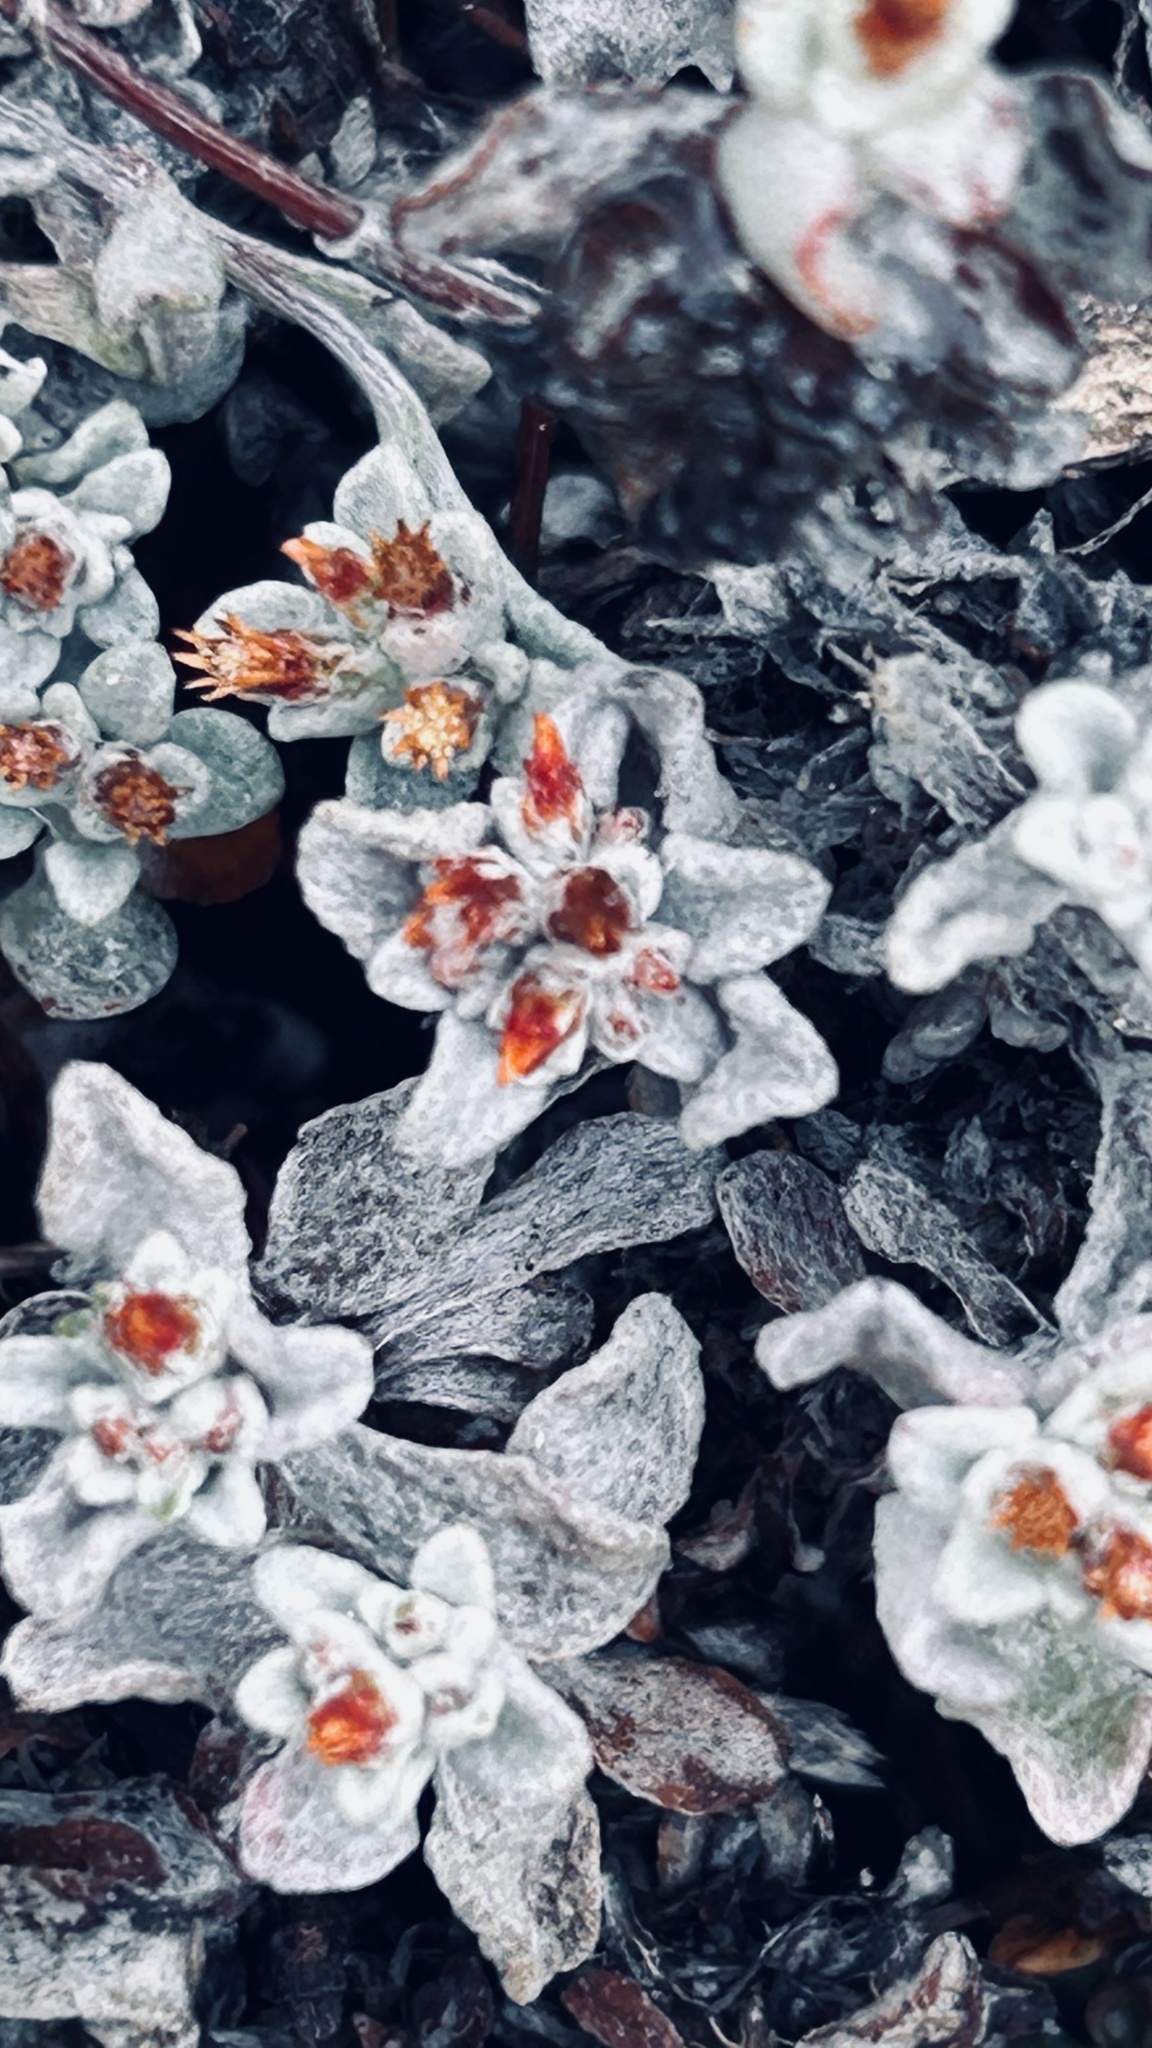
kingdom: Plantae
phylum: Tracheophyta
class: Magnoliopsida
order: Asterales
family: Asteraceae
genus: Helichrysum
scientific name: Helichrysum tinctum
